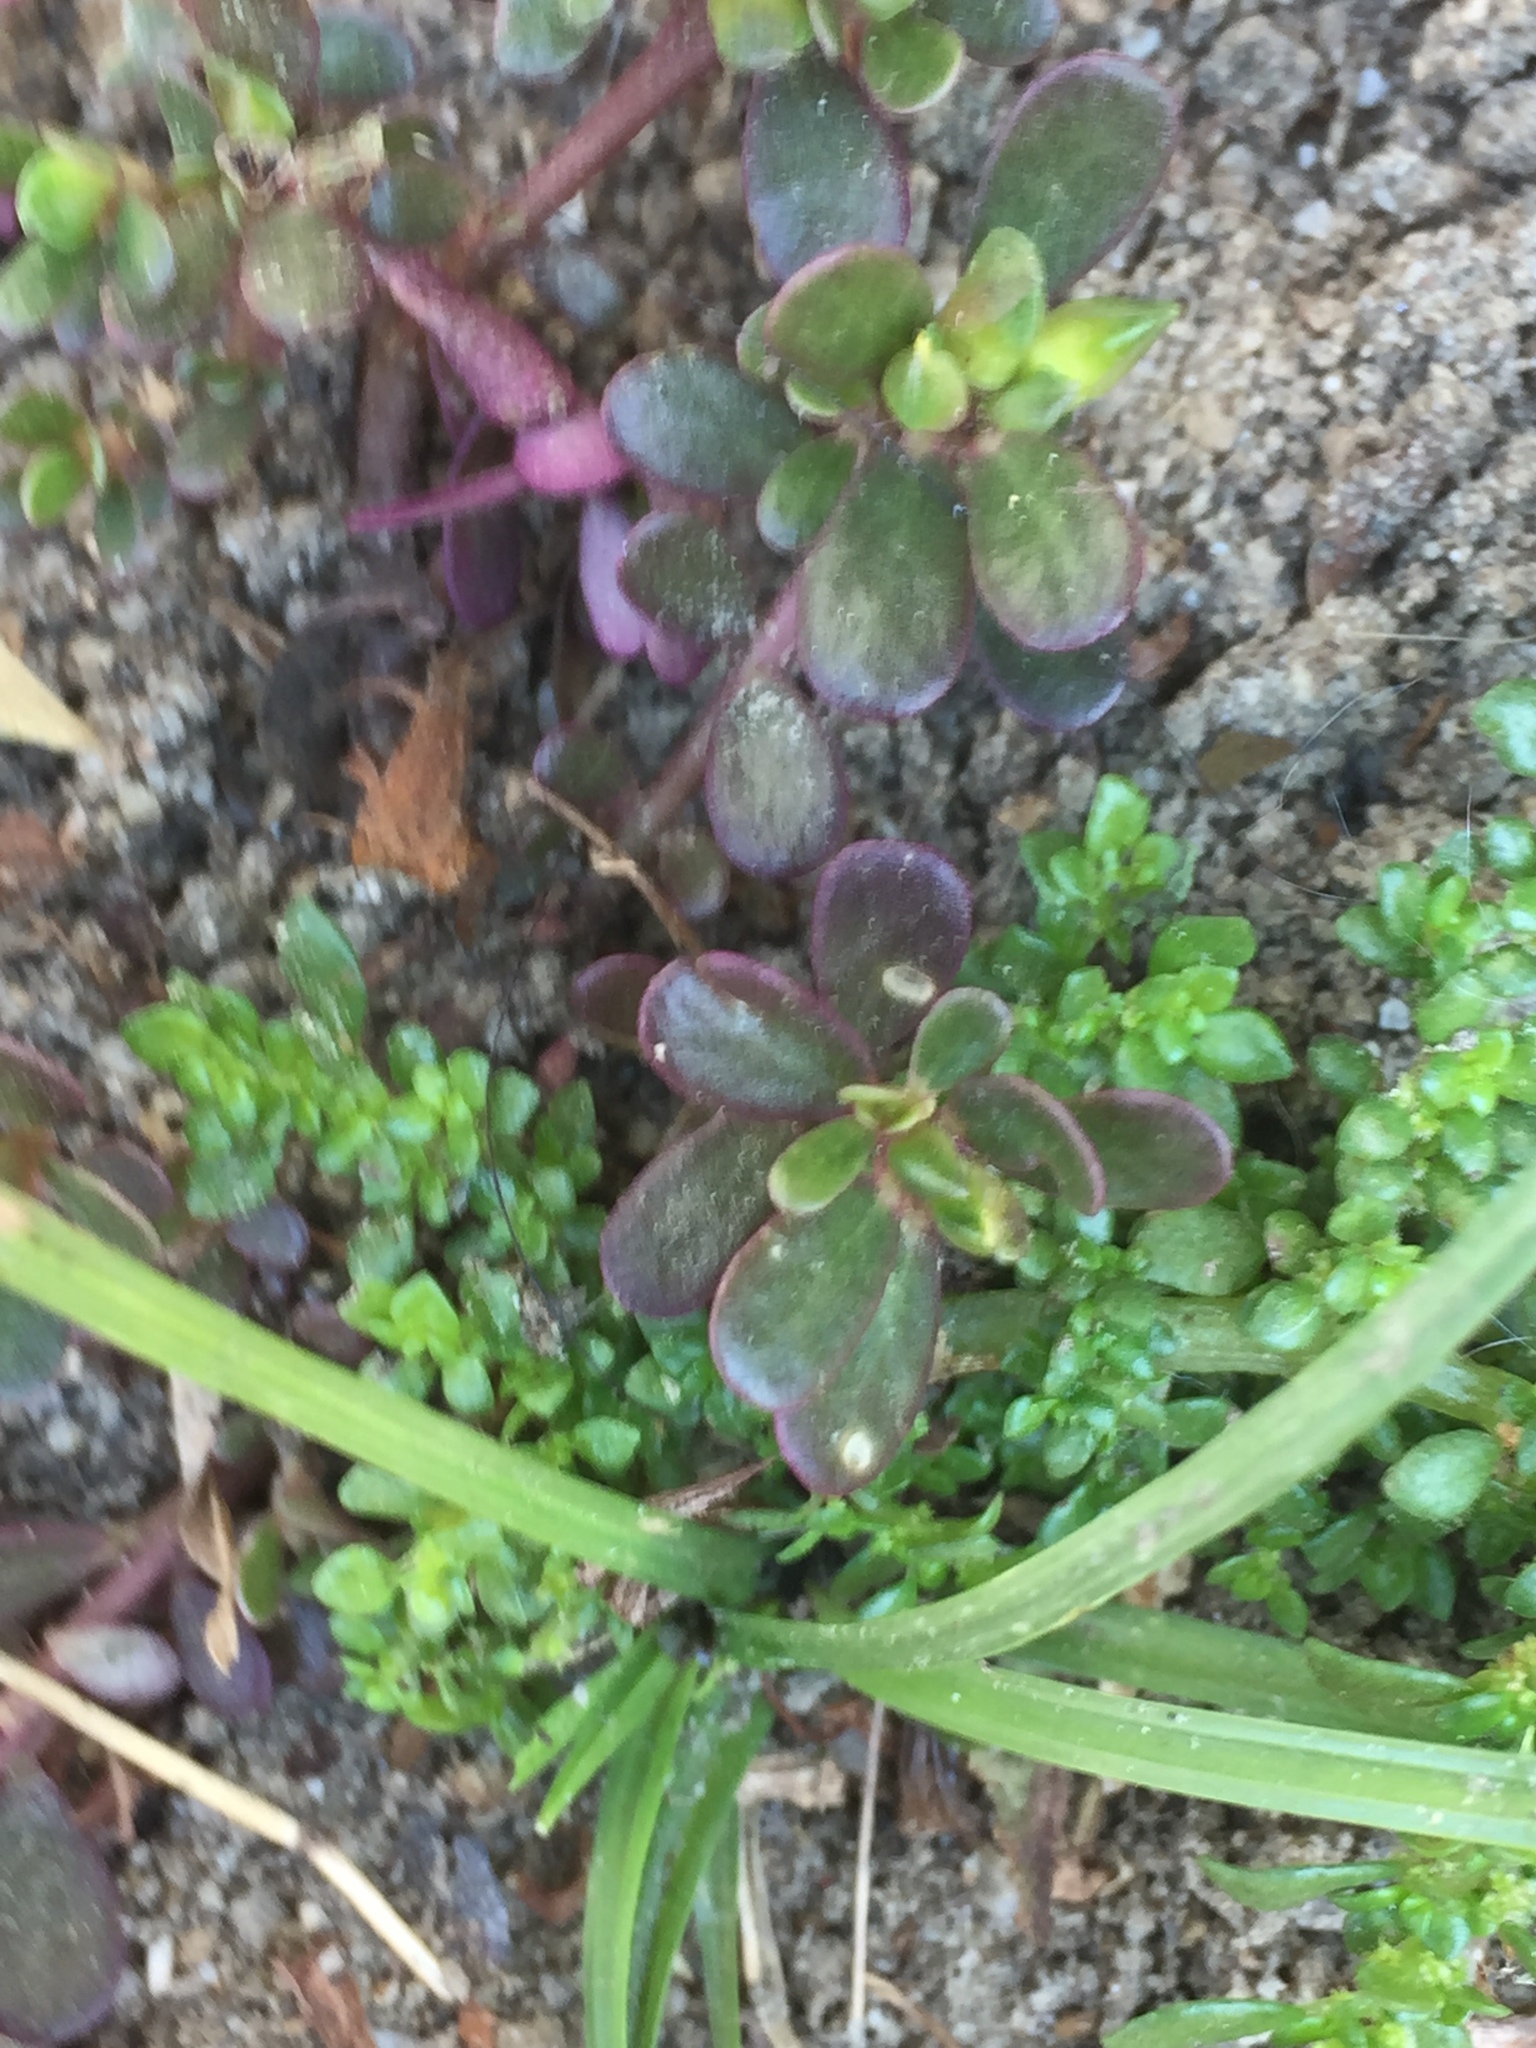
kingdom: Plantae
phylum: Tracheophyta
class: Magnoliopsida
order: Caryophyllales
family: Portulacaceae
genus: Portulaca
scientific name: Portulaca oleracea
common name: Common purslane
